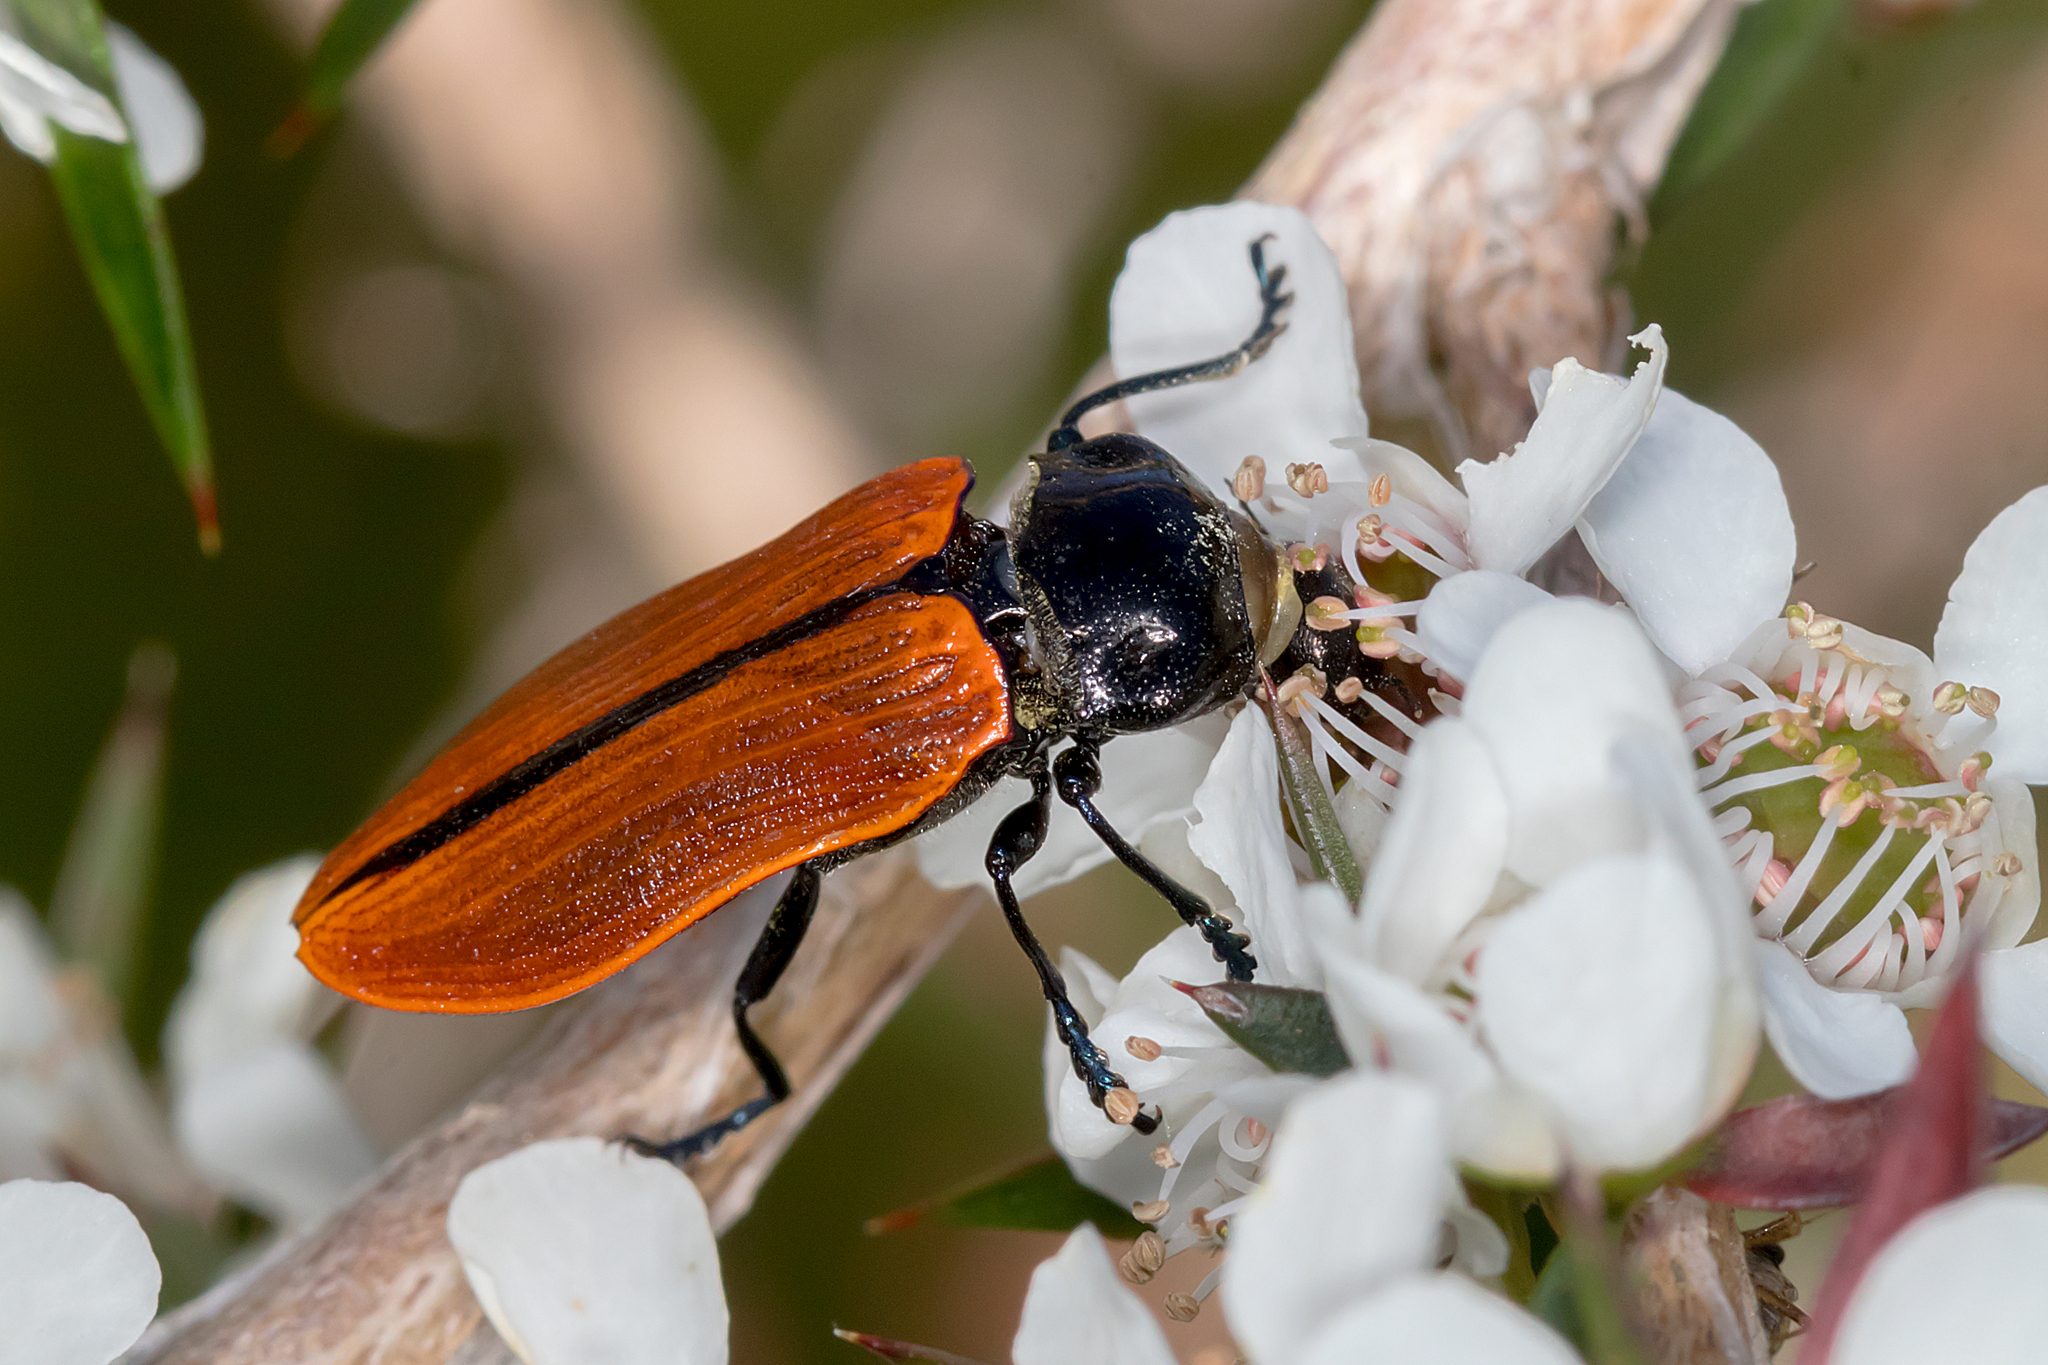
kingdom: Animalia
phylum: Arthropoda
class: Insecta
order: Coleoptera
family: Buprestidae
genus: Castiarina
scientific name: Castiarina rufipennis
